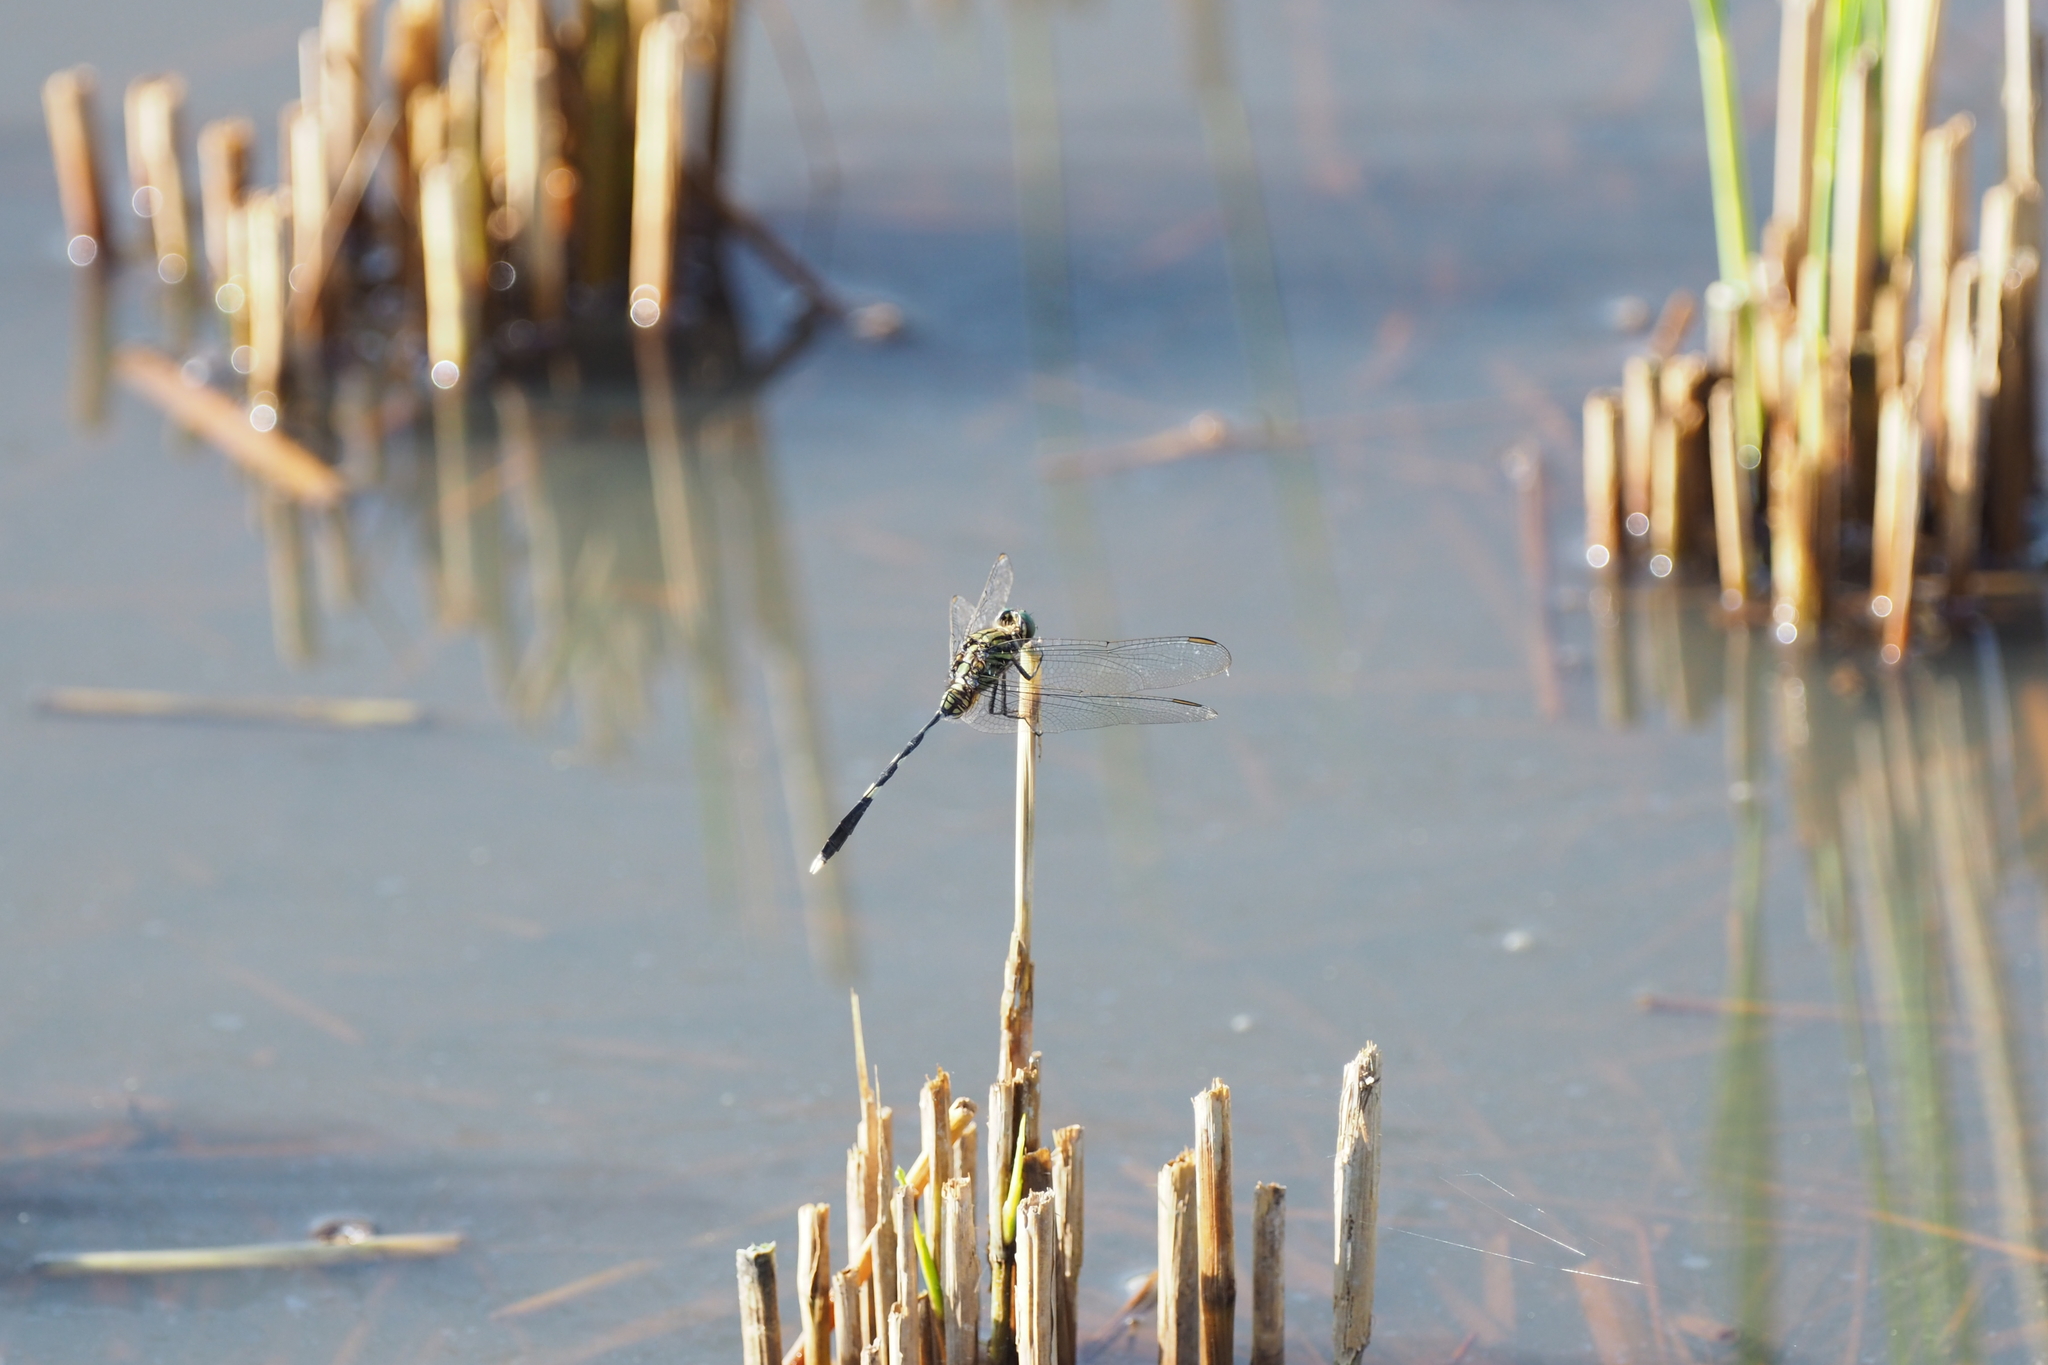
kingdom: Animalia
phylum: Arthropoda
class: Insecta
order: Odonata
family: Libellulidae
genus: Orthetrum
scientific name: Orthetrum sabina
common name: Slender skimmer
